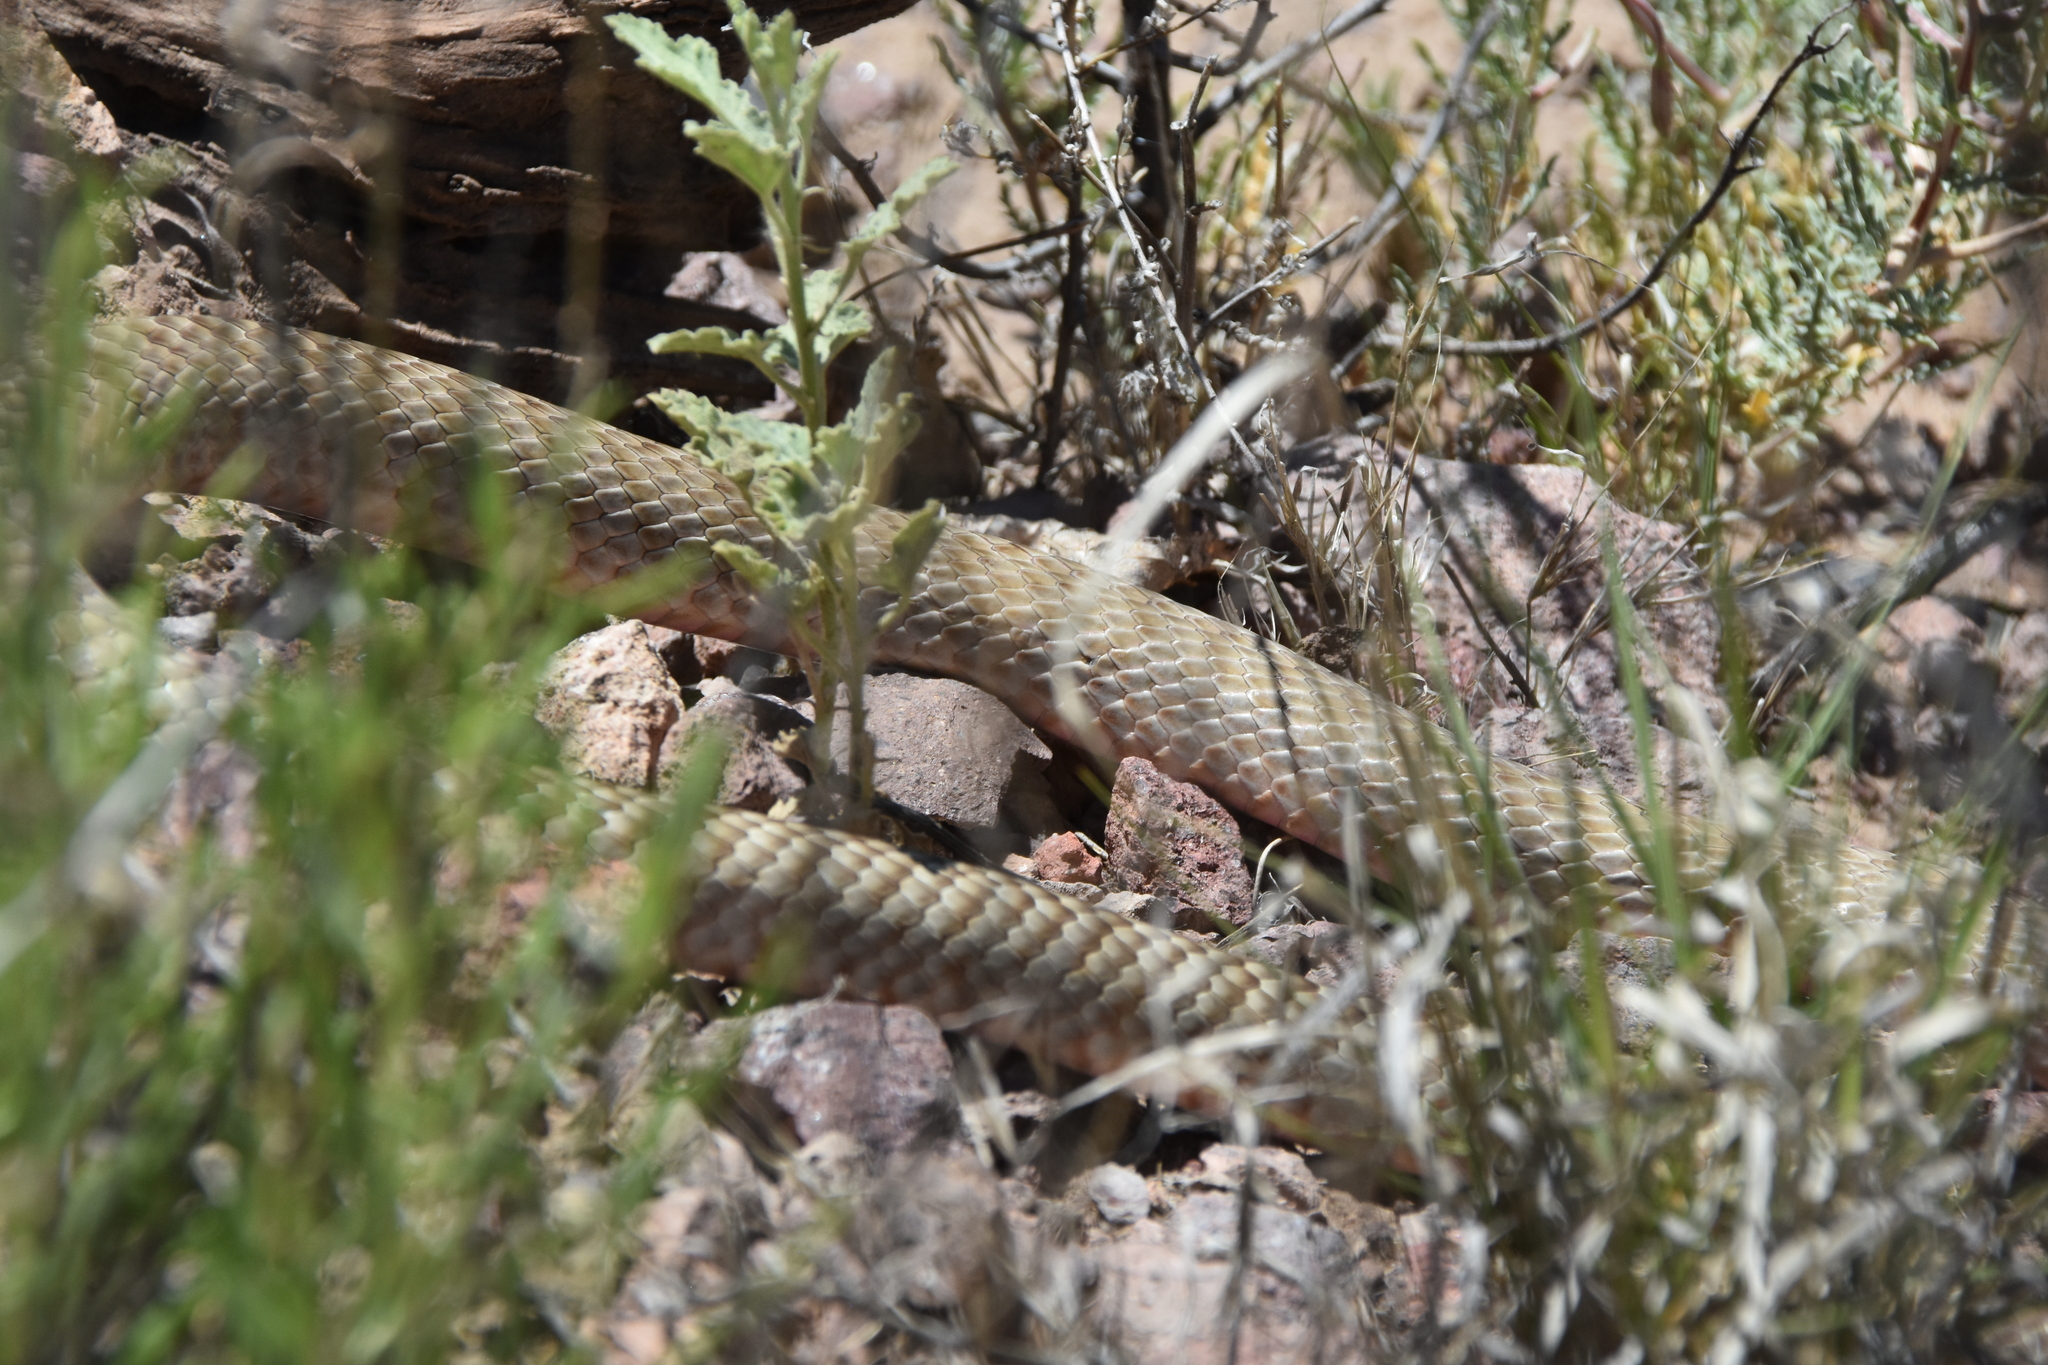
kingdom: Animalia
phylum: Chordata
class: Squamata
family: Colubridae
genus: Masticophis
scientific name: Masticophis flagellum
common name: Coachwhip
